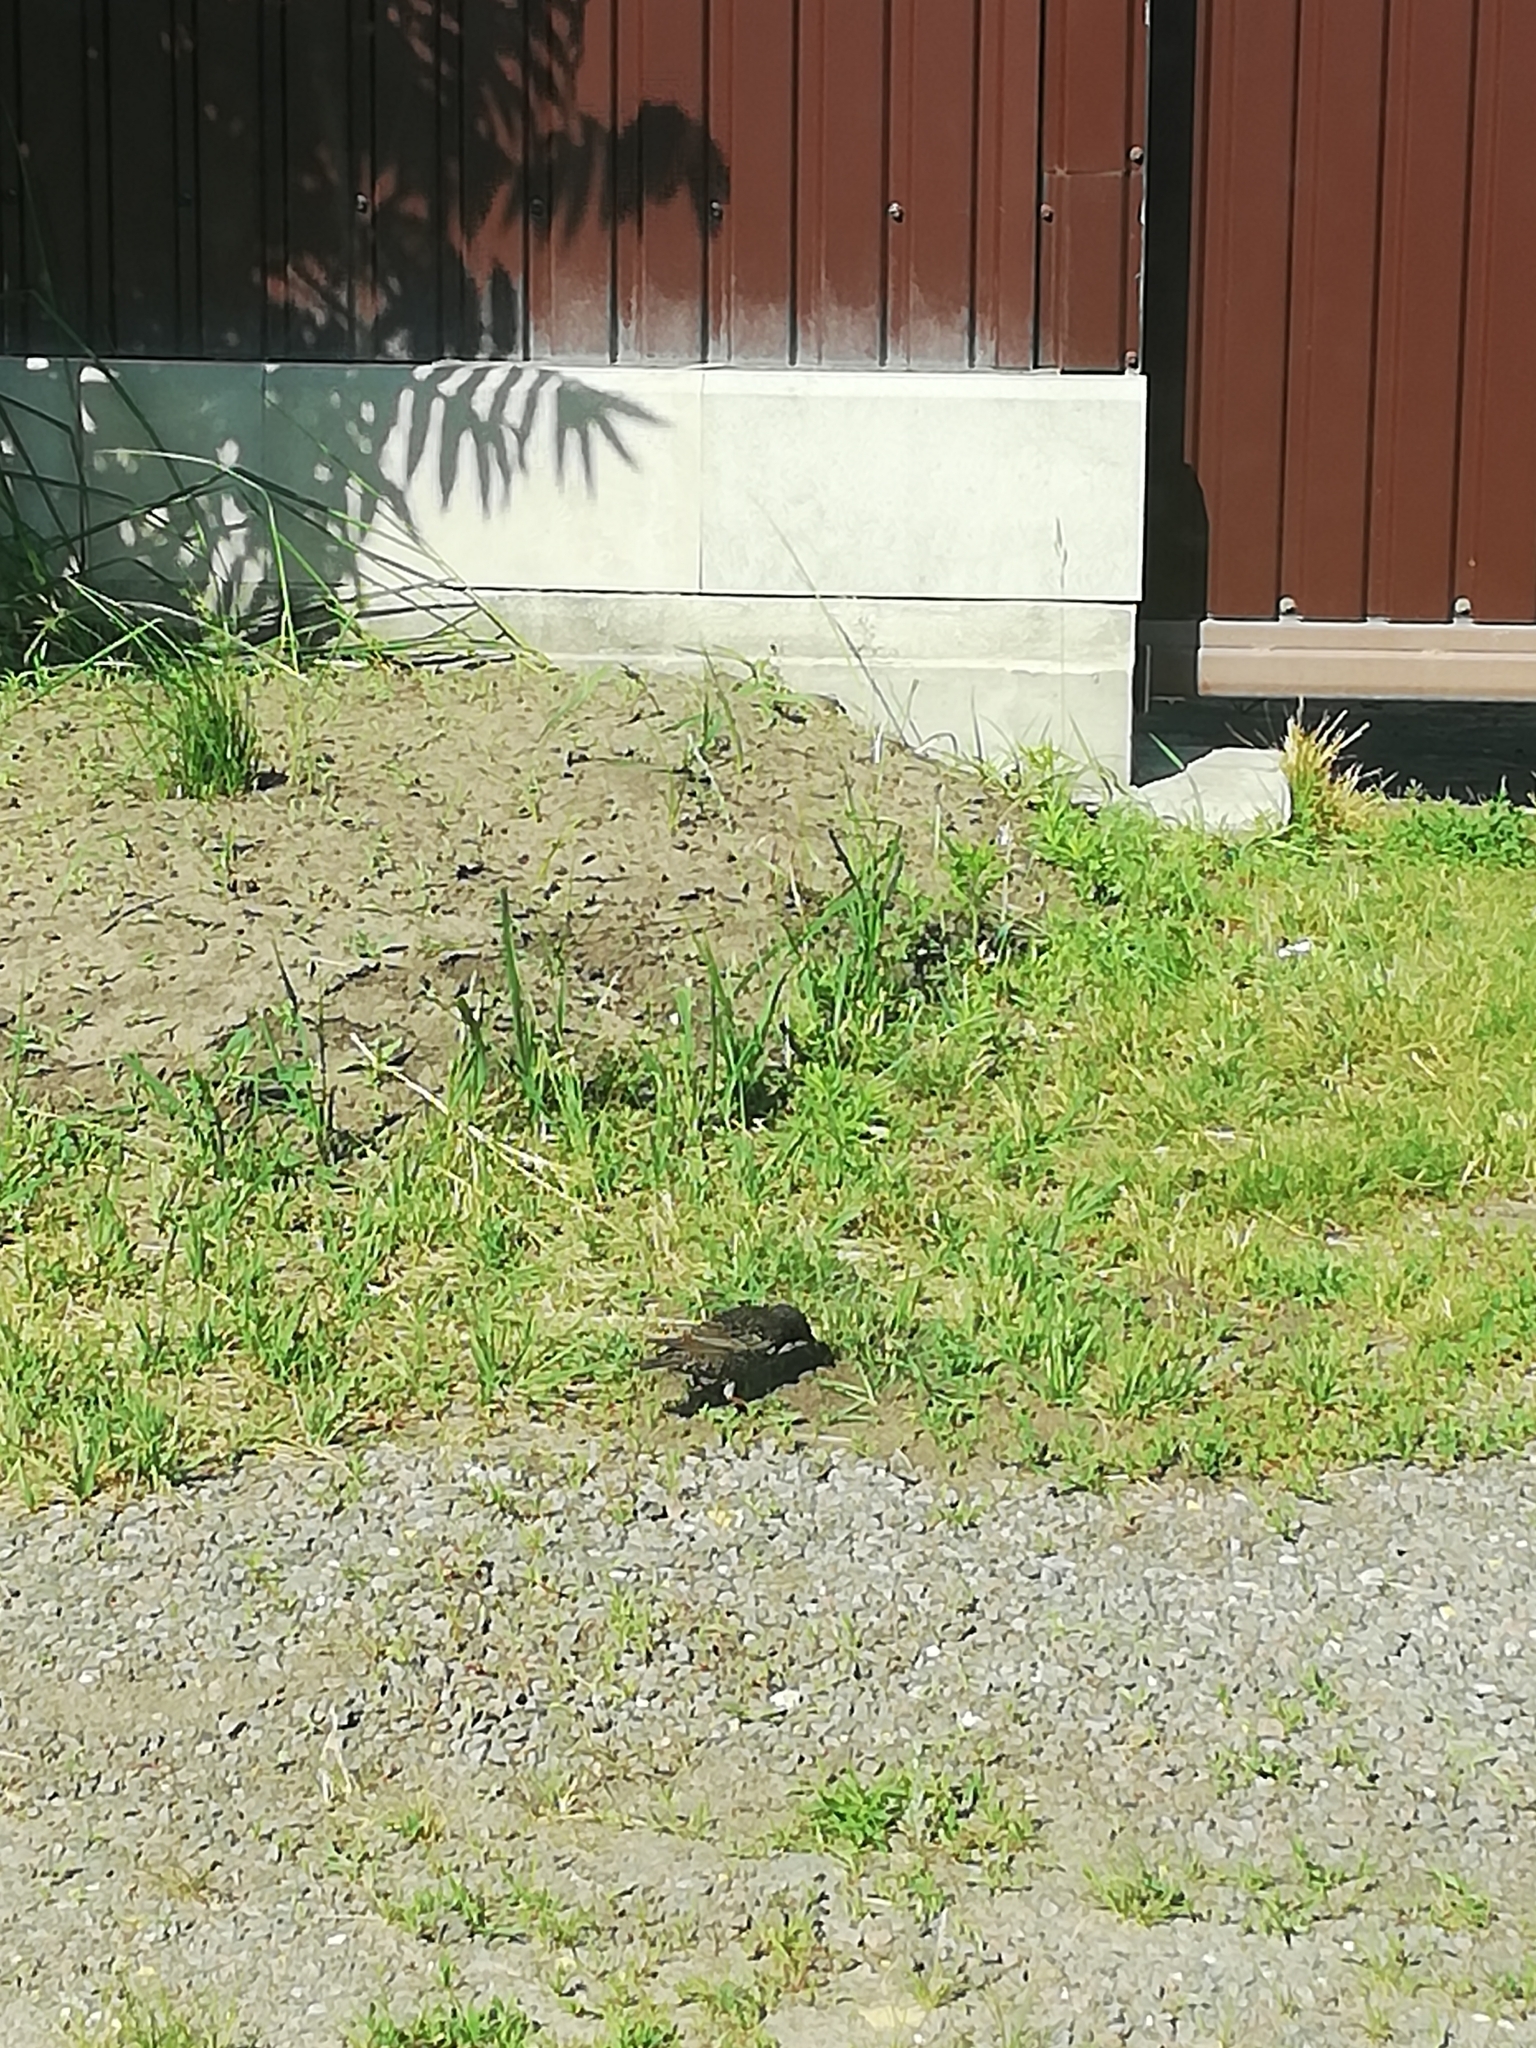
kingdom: Animalia
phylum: Chordata
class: Aves
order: Passeriformes
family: Sturnidae
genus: Sturnus
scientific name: Sturnus vulgaris
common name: Common starling
